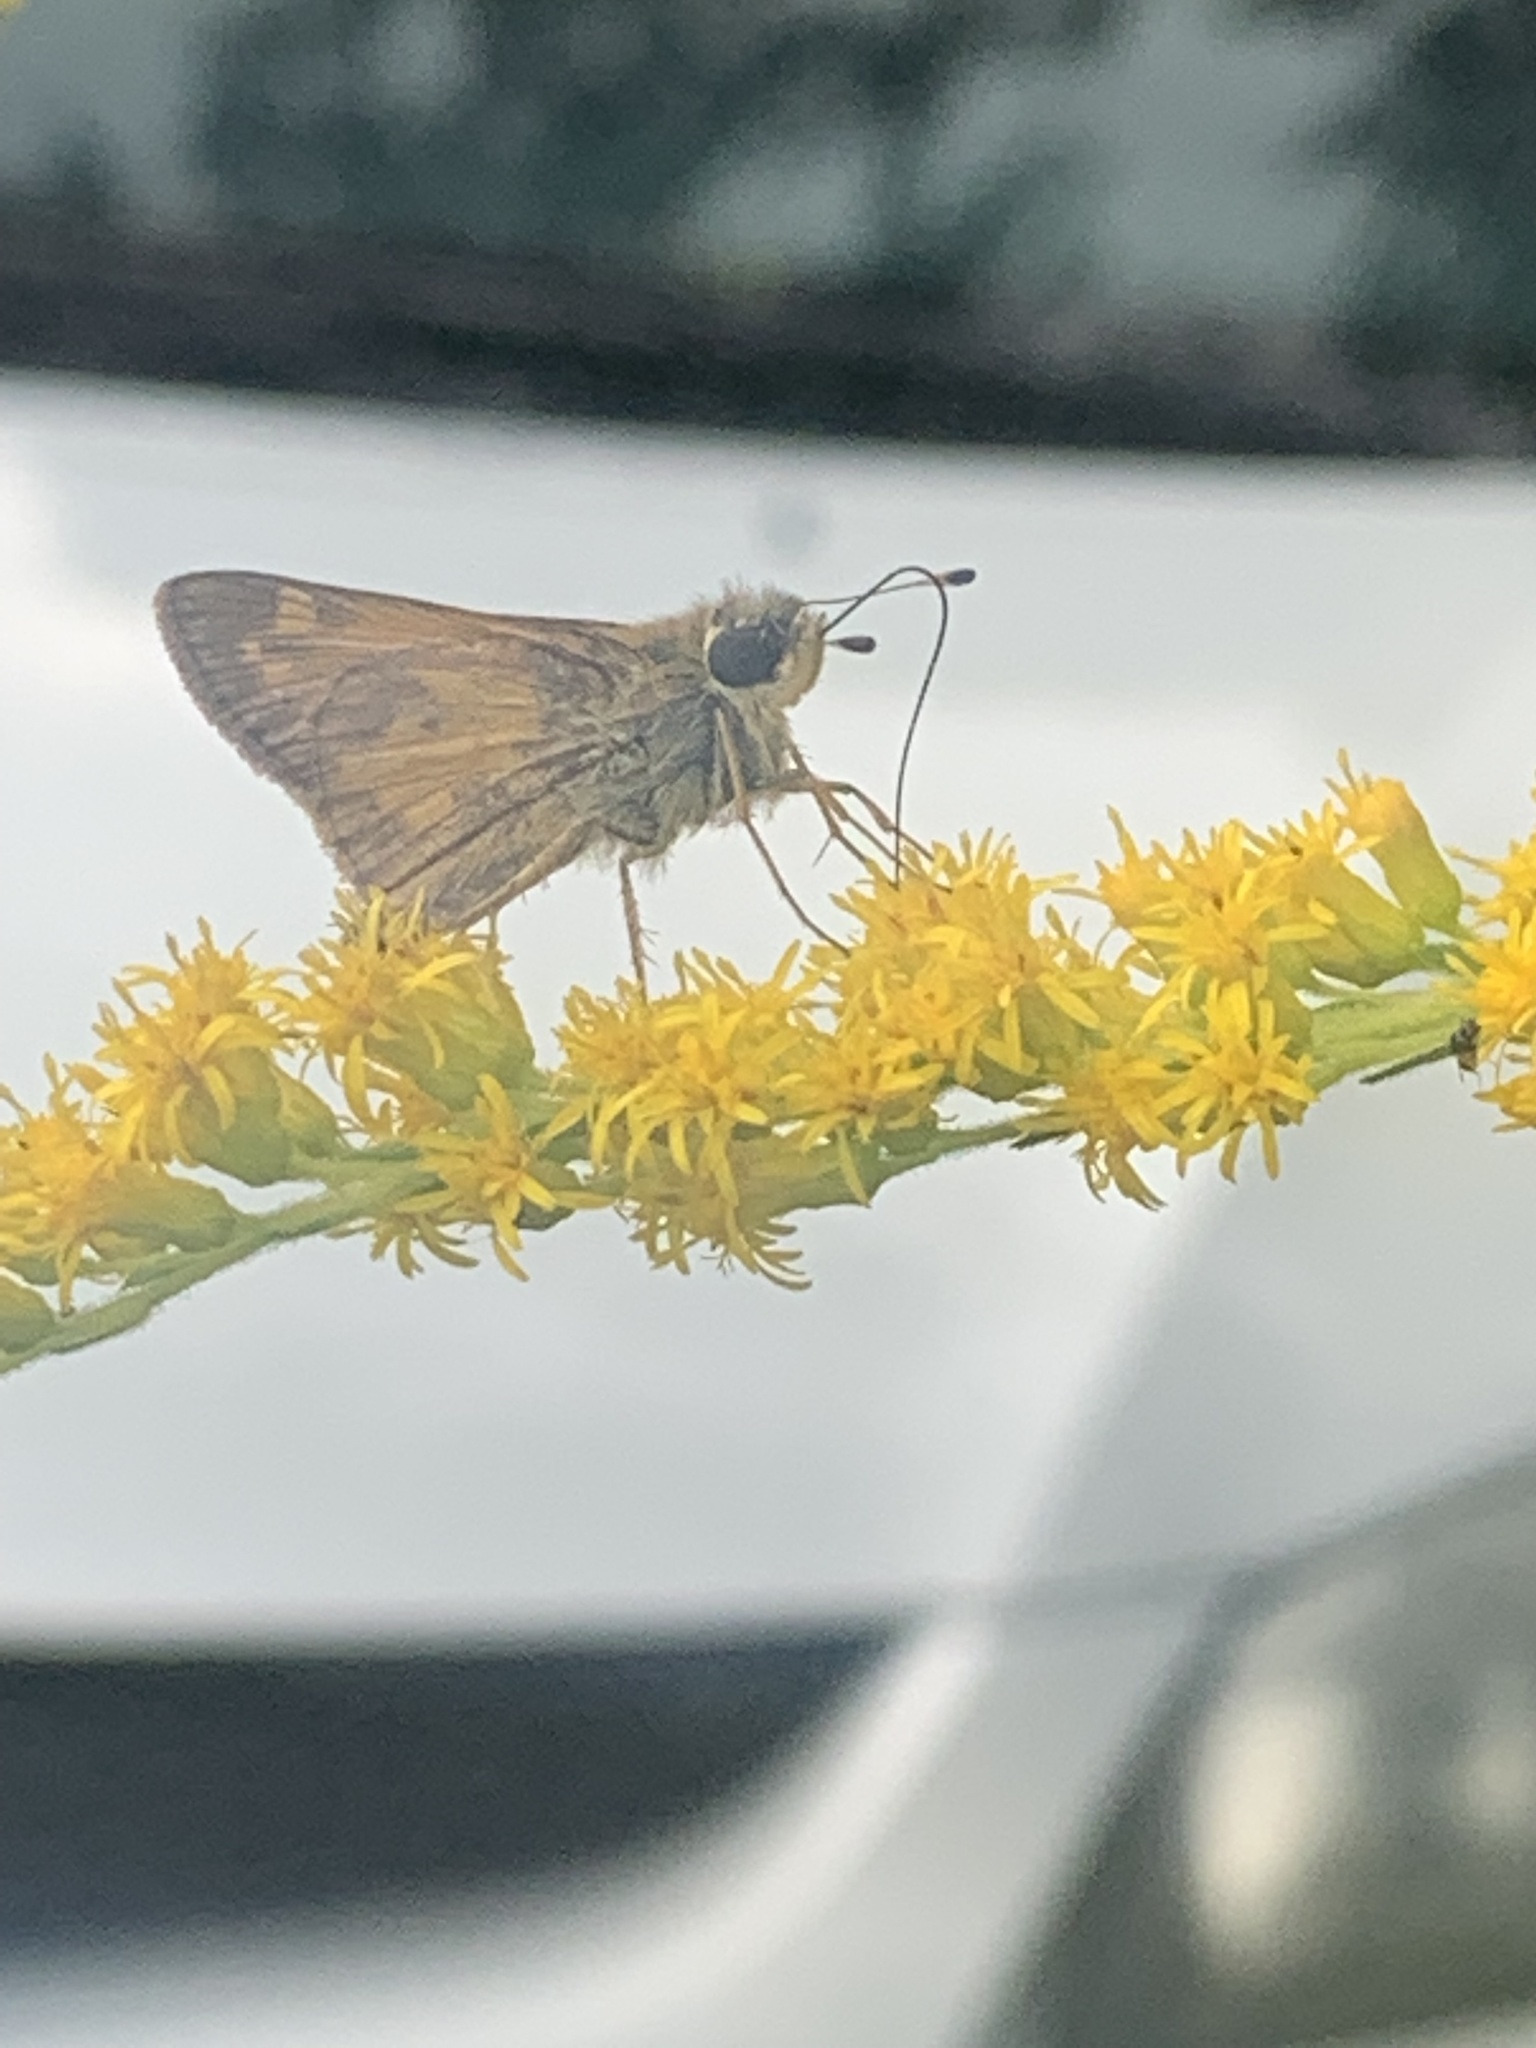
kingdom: Animalia
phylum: Arthropoda
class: Insecta
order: Lepidoptera
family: Hesperiidae
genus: Atalopedes
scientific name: Atalopedes
